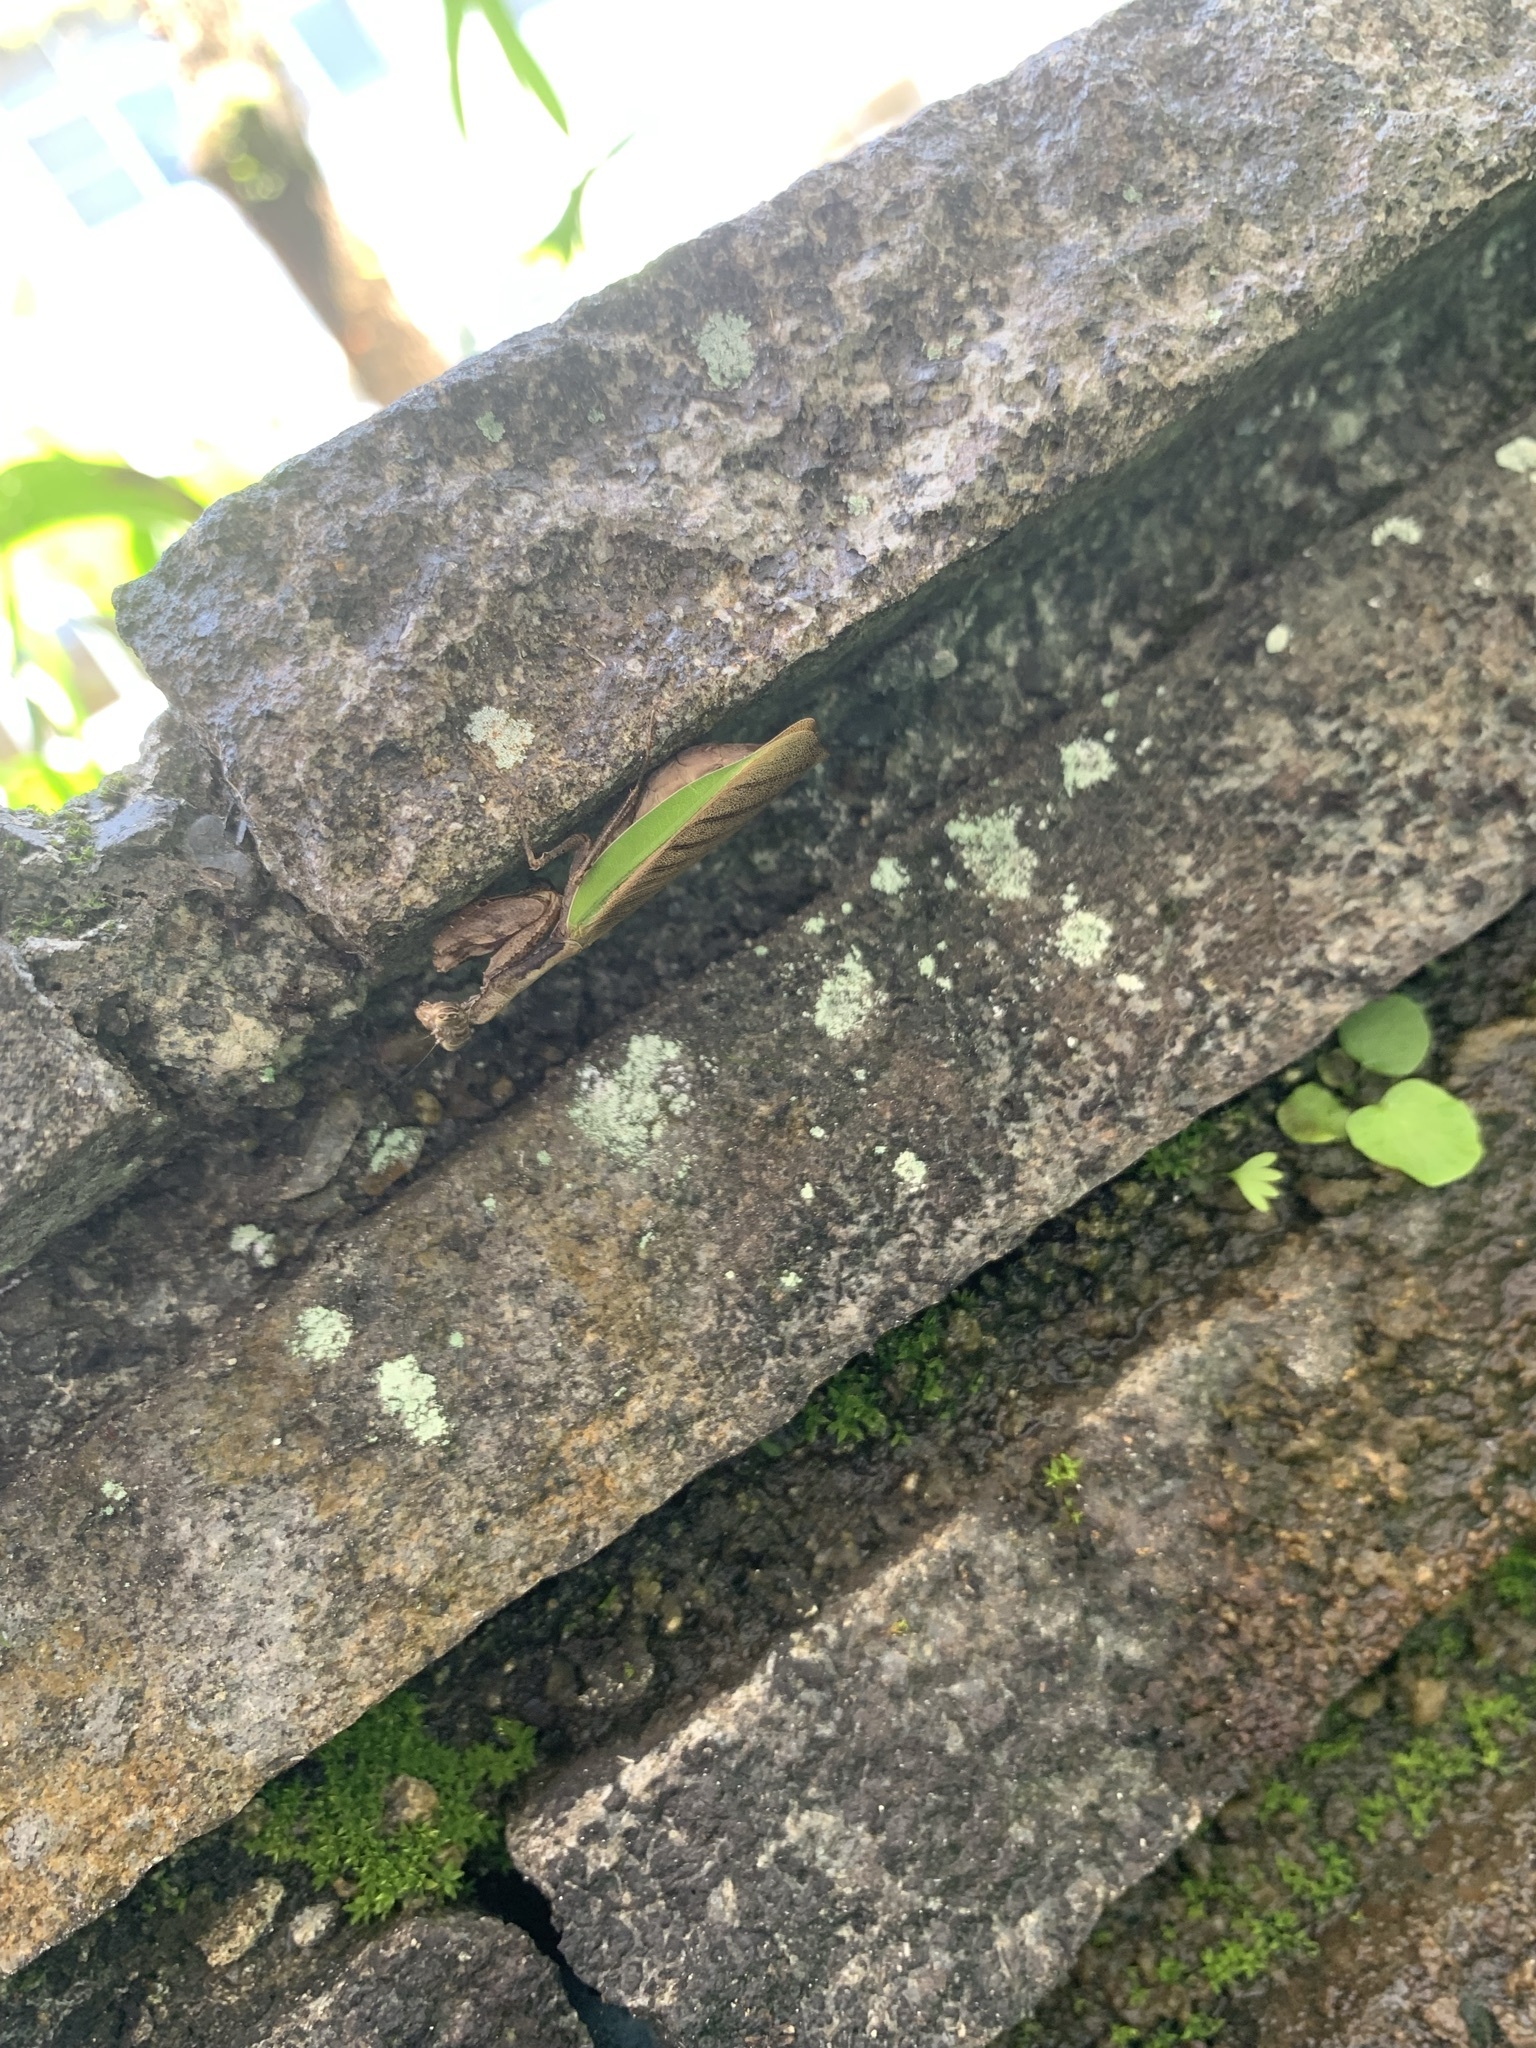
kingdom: Animalia
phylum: Arthropoda
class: Insecta
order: Mantodea
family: Hymenopodidae
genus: Acromantis
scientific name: Acromantis satsumensis
